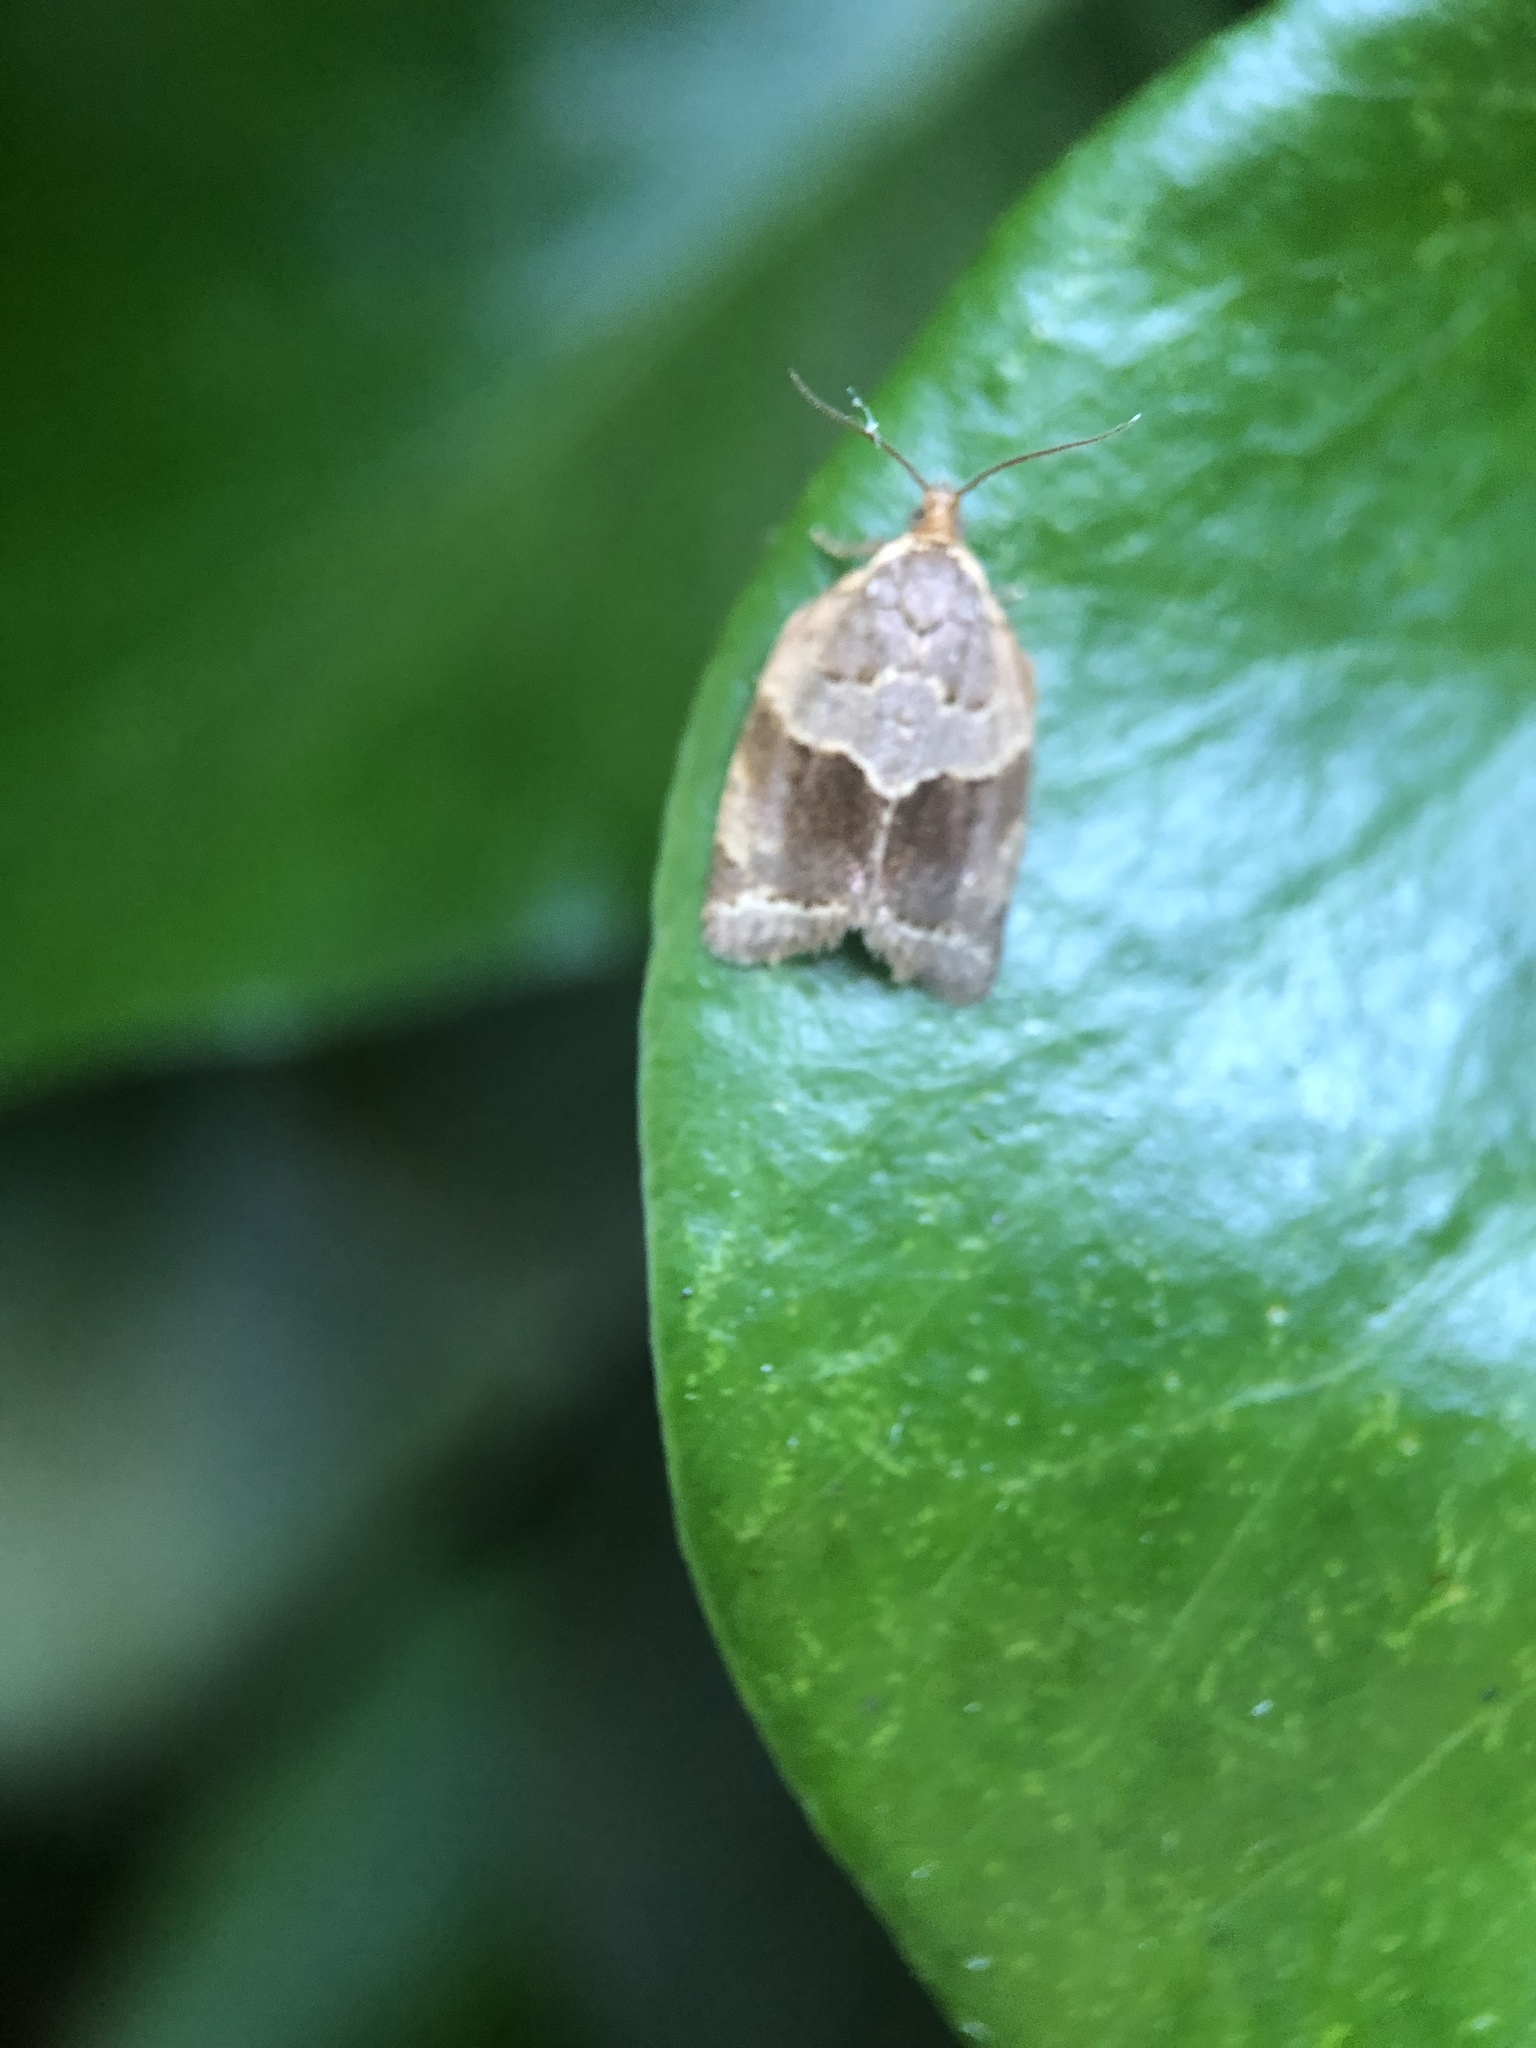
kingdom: Animalia
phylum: Arthropoda
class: Insecta
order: Lepidoptera
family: Tortricidae
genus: Clepsis
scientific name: Clepsis dumicolana
